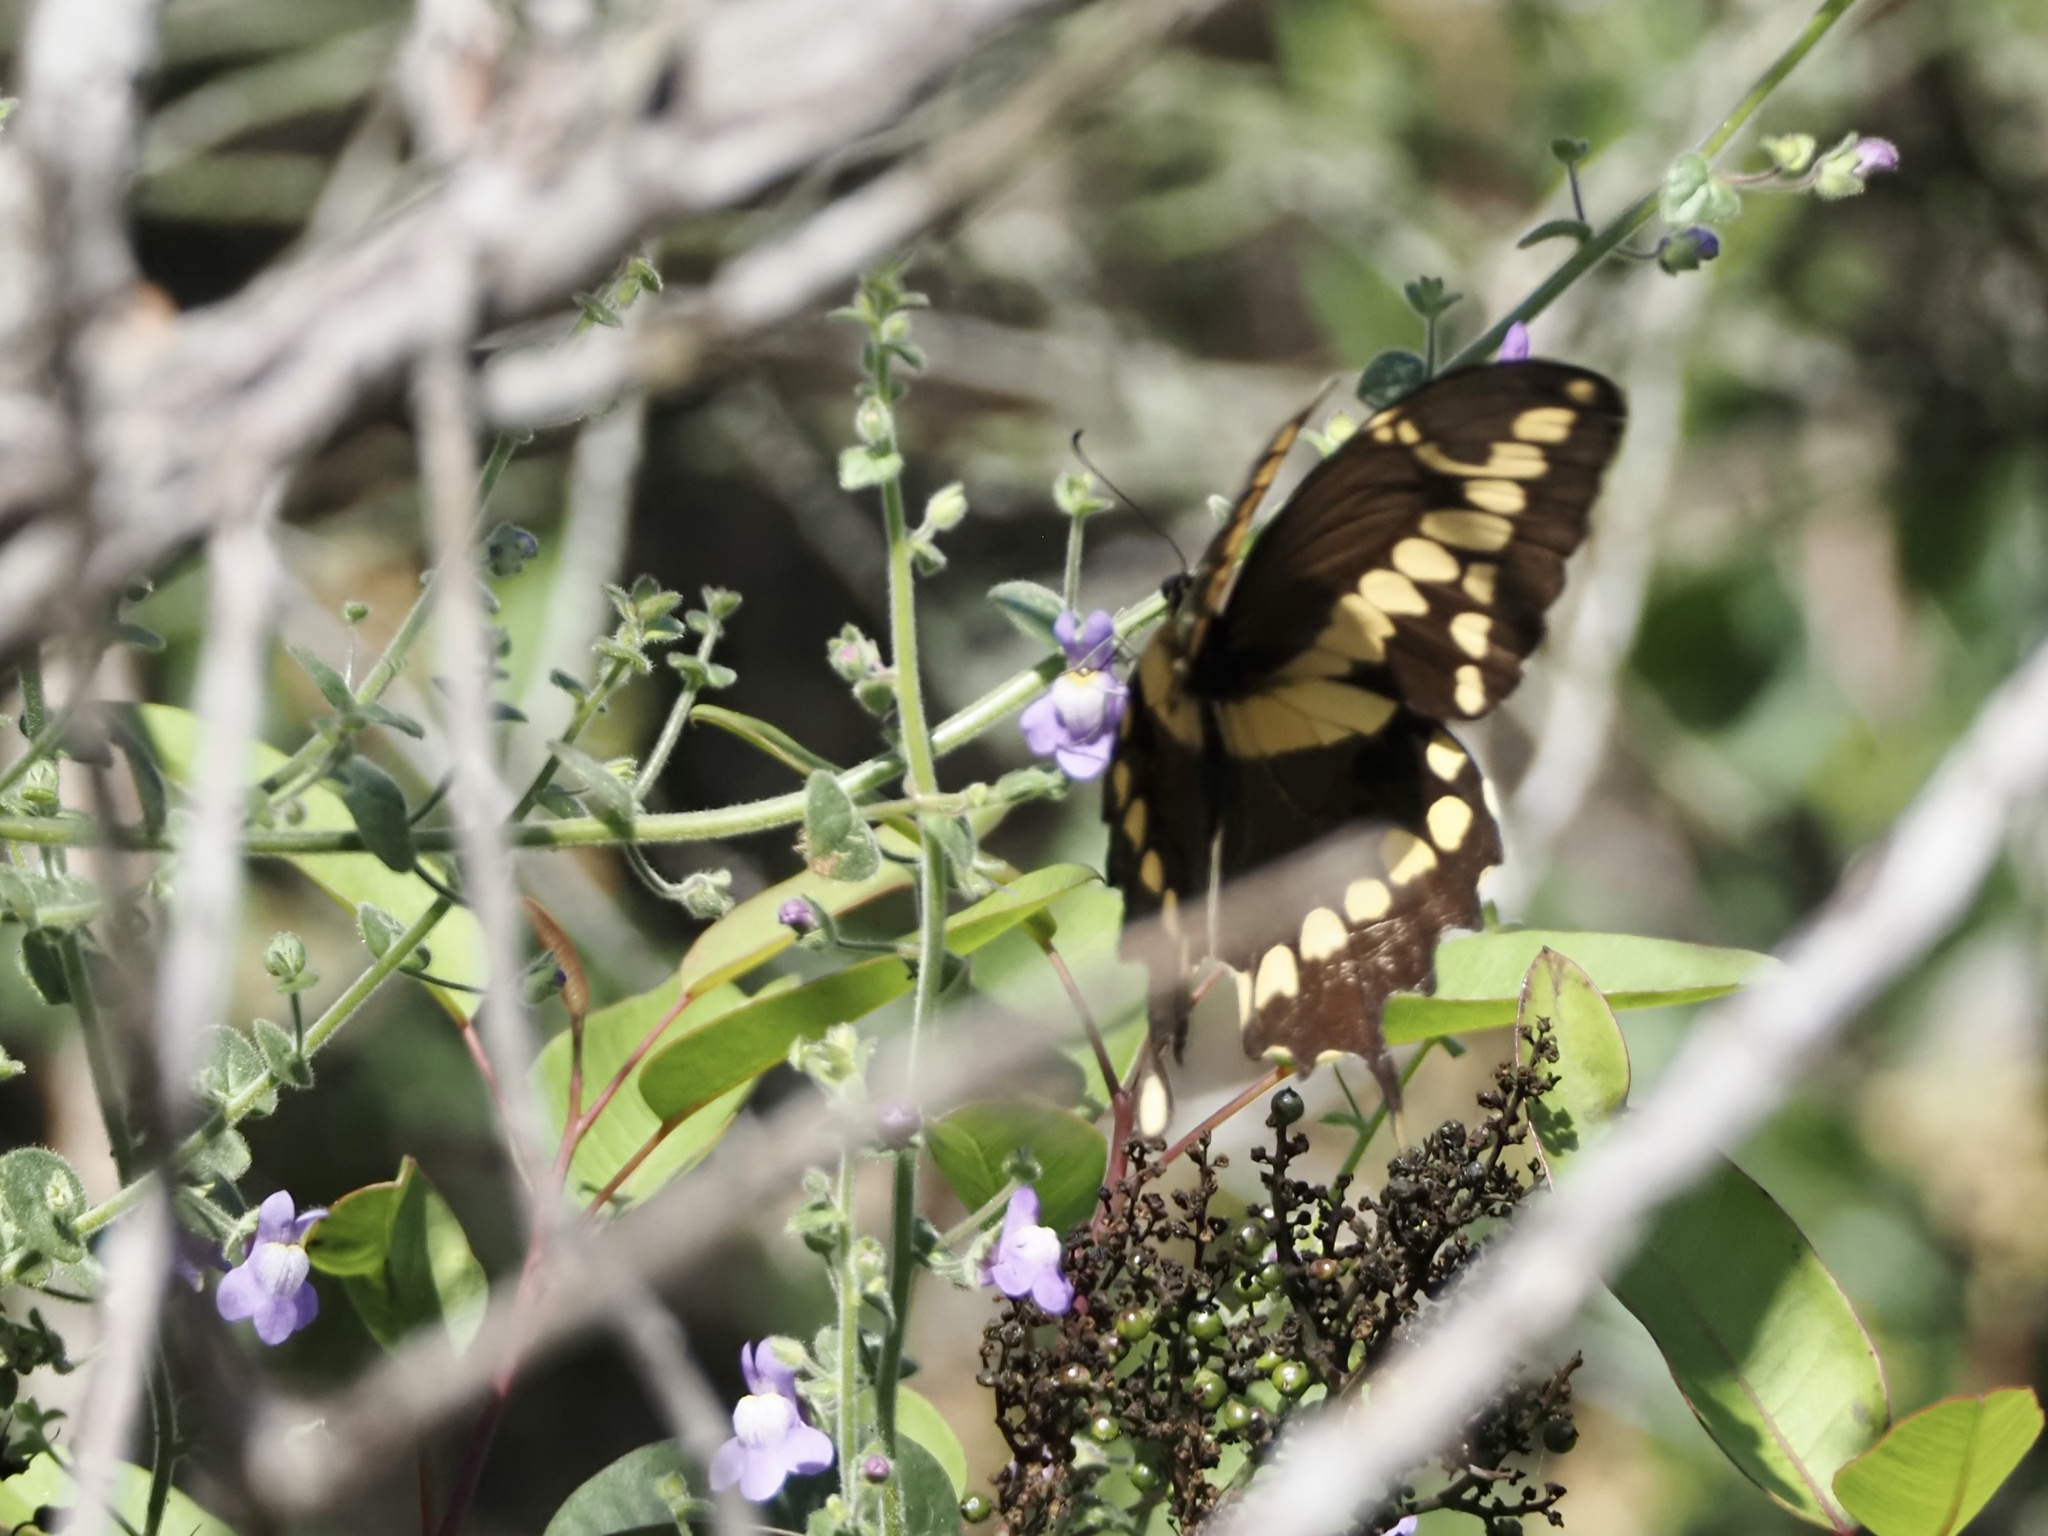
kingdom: Animalia
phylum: Arthropoda
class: Insecta
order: Lepidoptera
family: Papilionidae
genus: Papilio
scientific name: Papilio rumiko
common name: Western giant swallowtail
